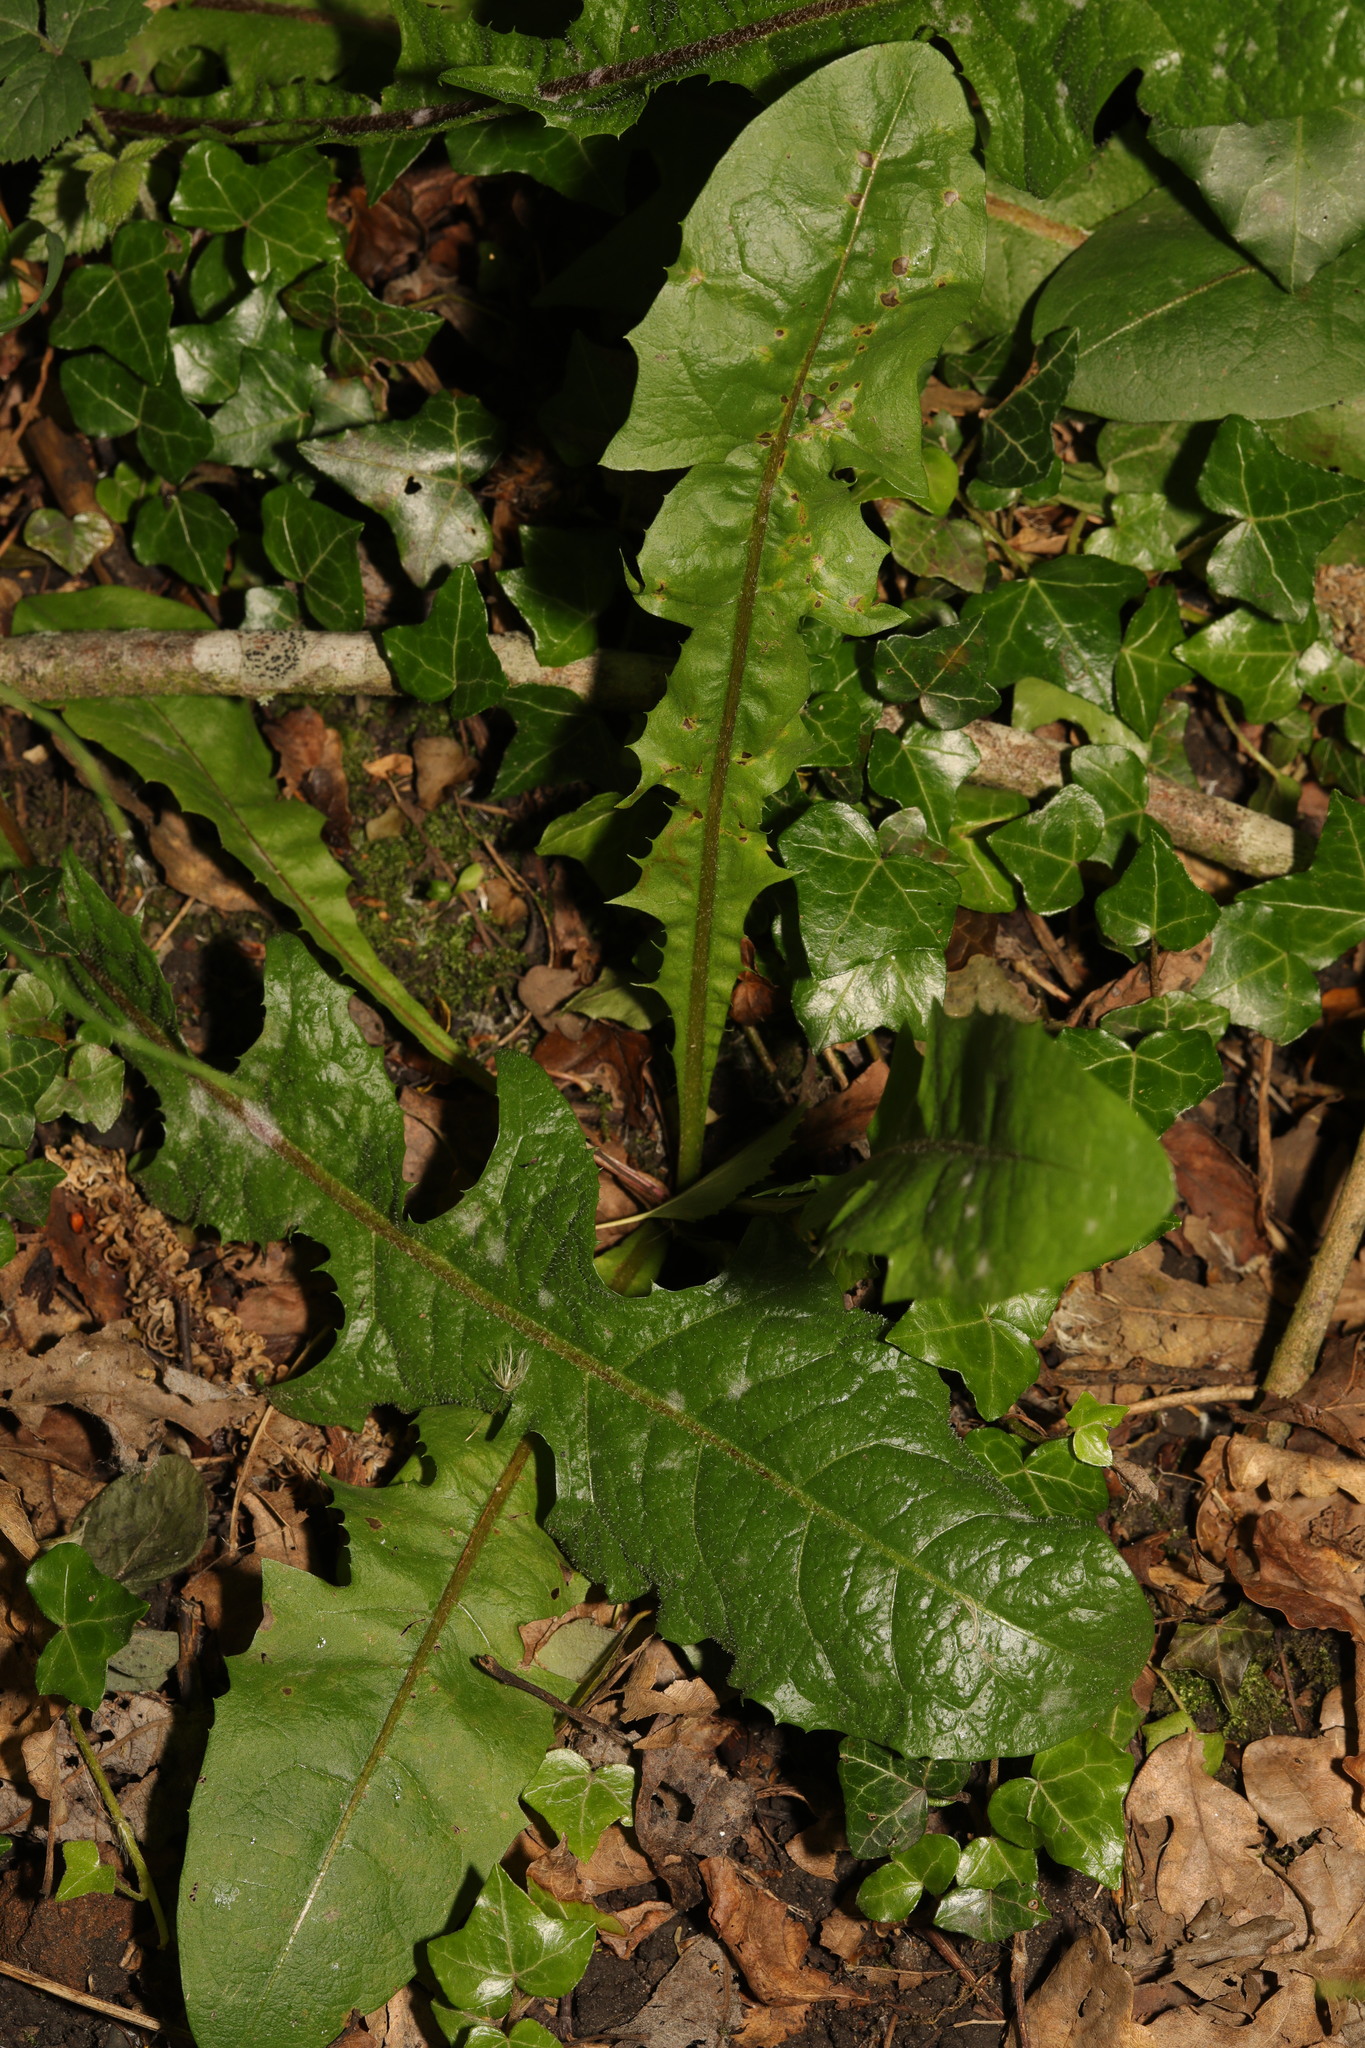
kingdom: Plantae
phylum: Tracheophyta
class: Magnoliopsida
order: Asterales
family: Asteraceae
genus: Taraxacum
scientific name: Taraxacum officinale
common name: Common dandelion
